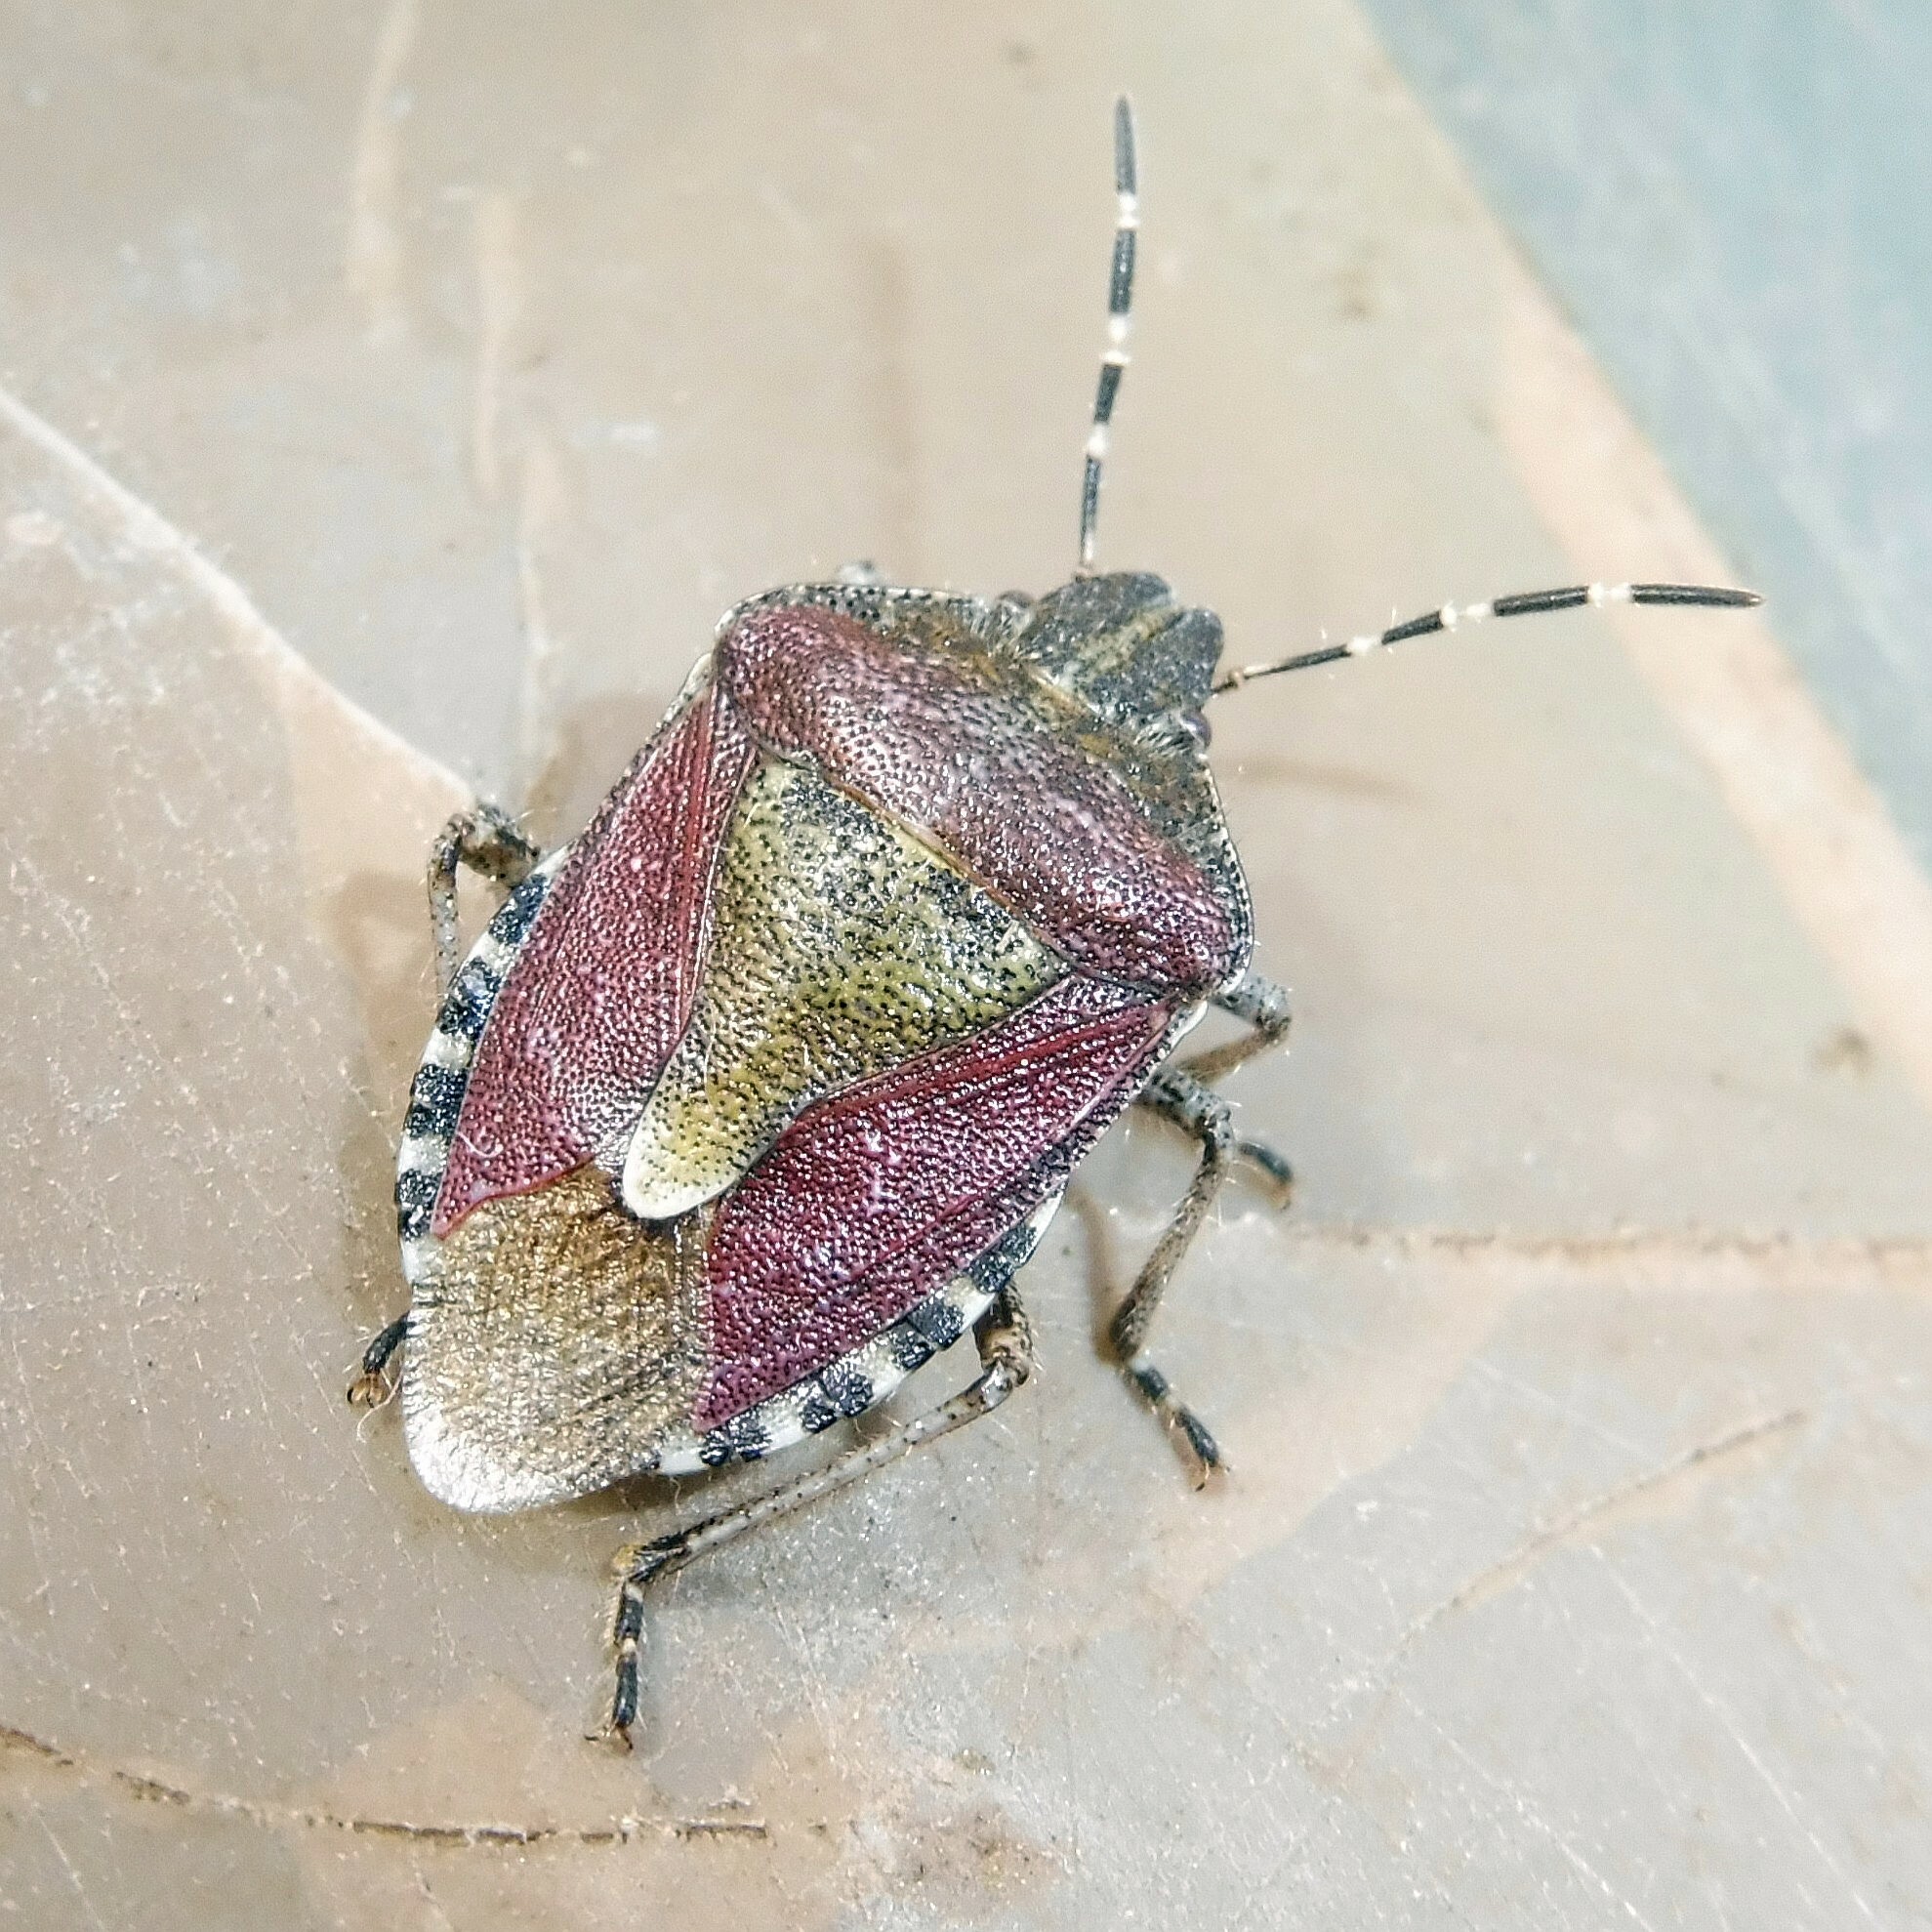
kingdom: Animalia
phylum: Arthropoda
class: Insecta
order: Hemiptera
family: Pentatomidae
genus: Dolycoris
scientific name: Dolycoris baccarum
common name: Sloe bug
